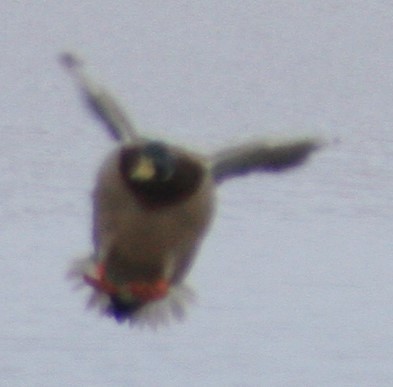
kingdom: Animalia
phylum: Chordata
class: Aves
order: Anseriformes
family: Anatidae
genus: Anas
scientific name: Anas platyrhynchos
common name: Mallard
